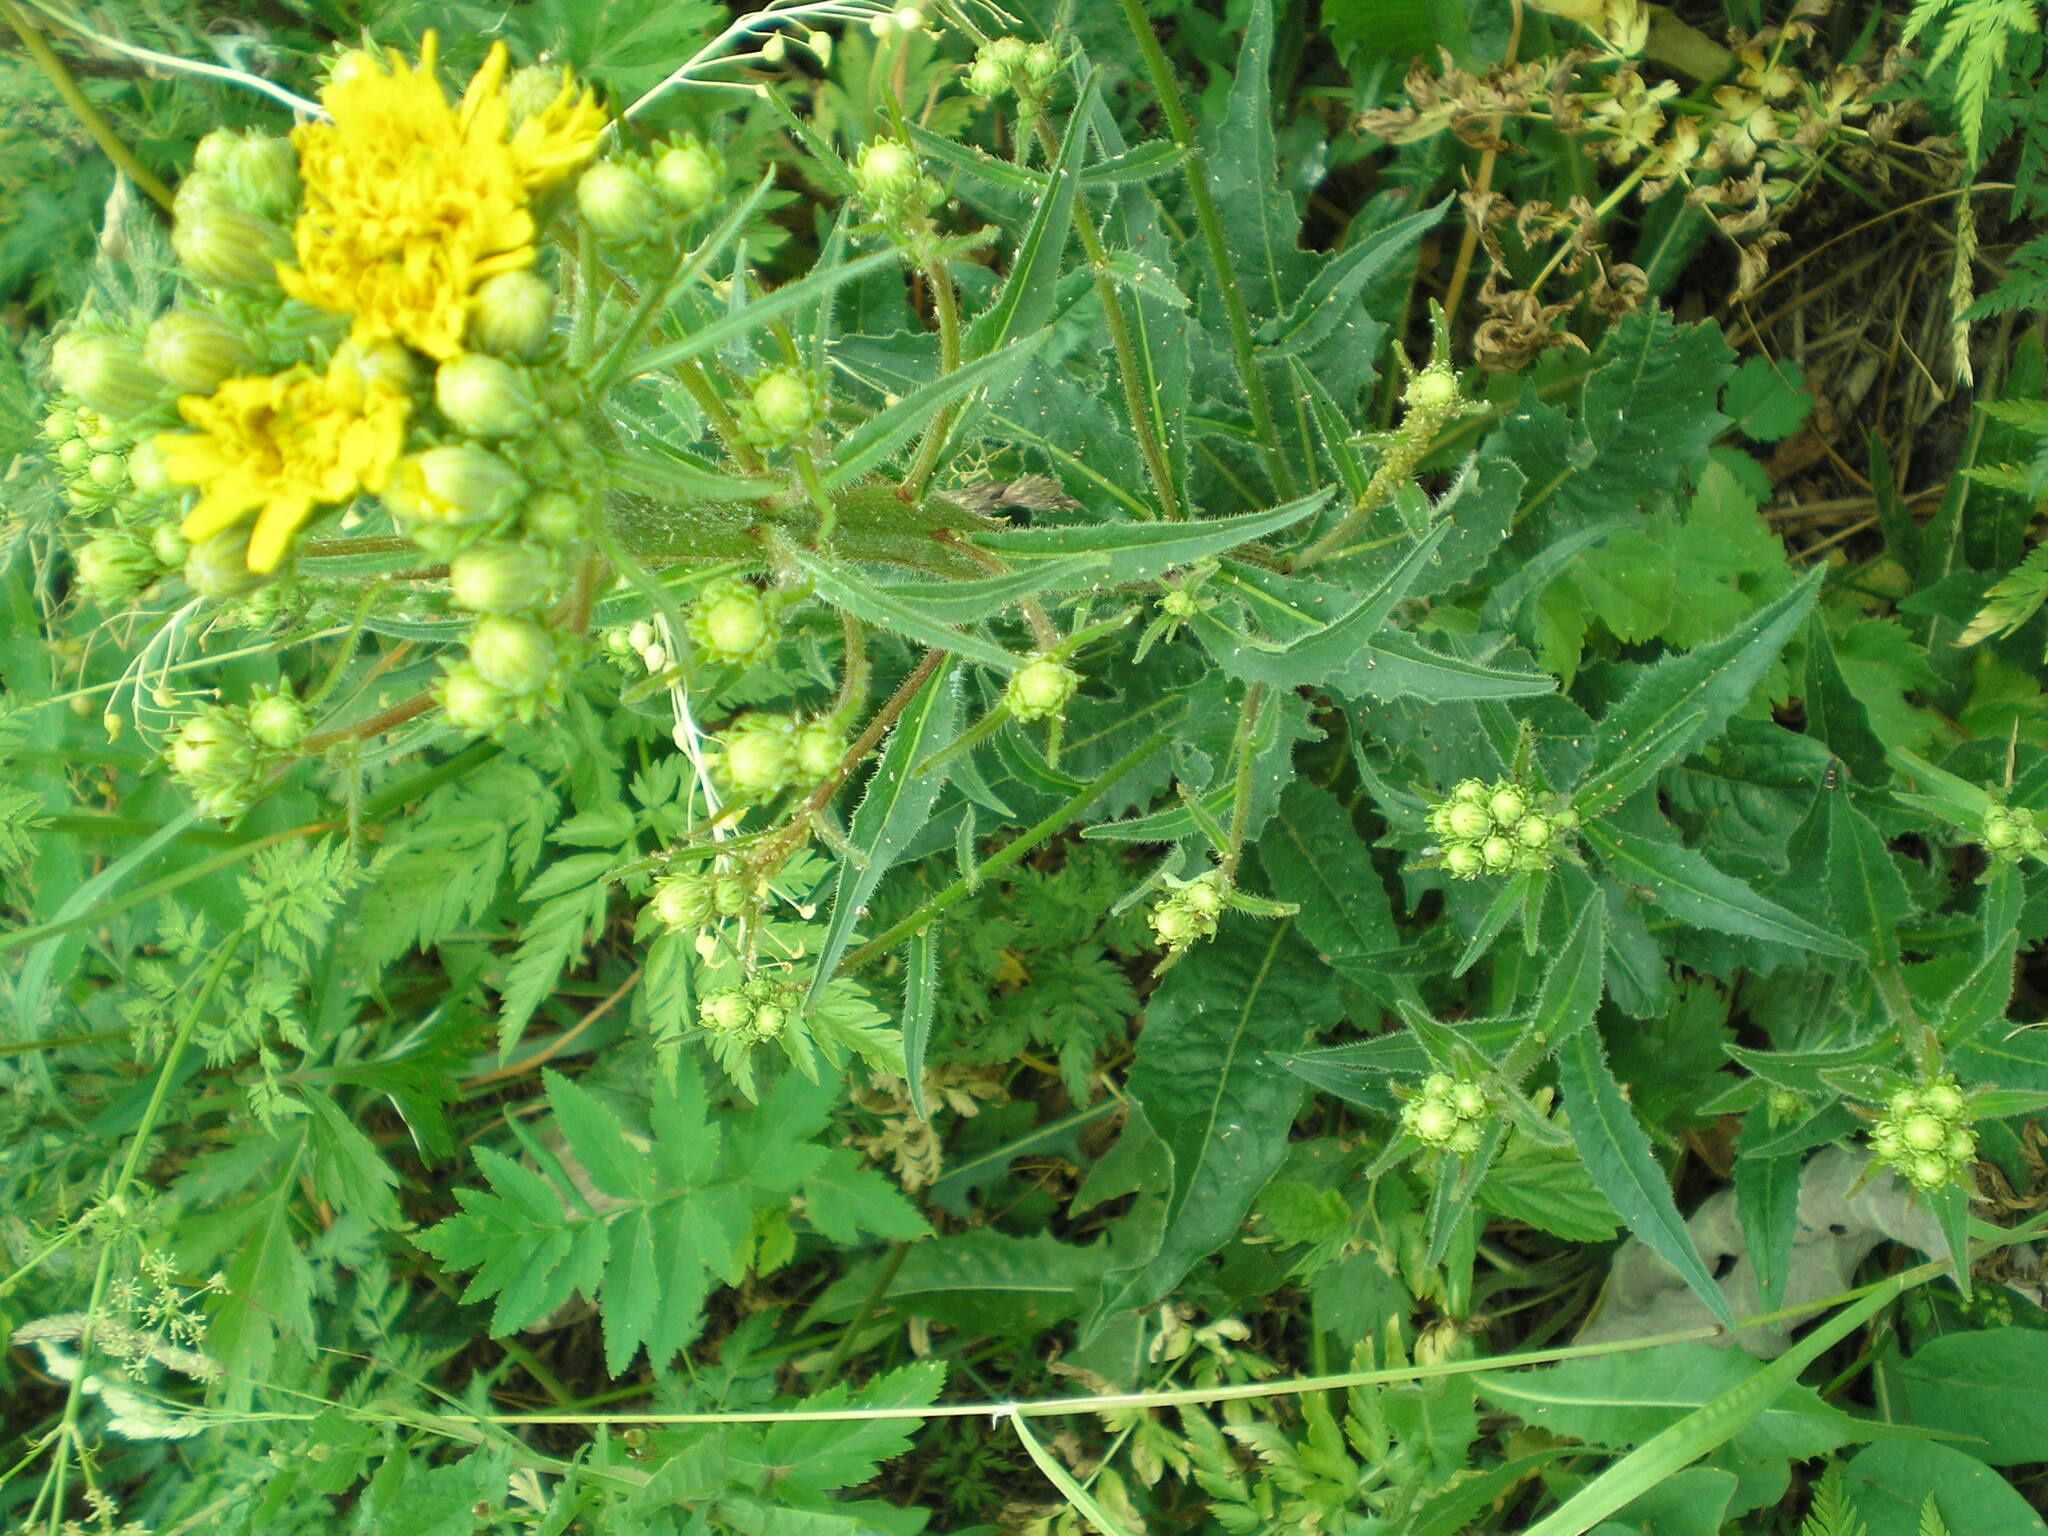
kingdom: Plantae
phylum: Tracheophyta
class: Magnoliopsida
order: Asterales
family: Asteraceae
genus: Picris
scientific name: Picris hieracioides
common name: Hawkweed oxtongue
